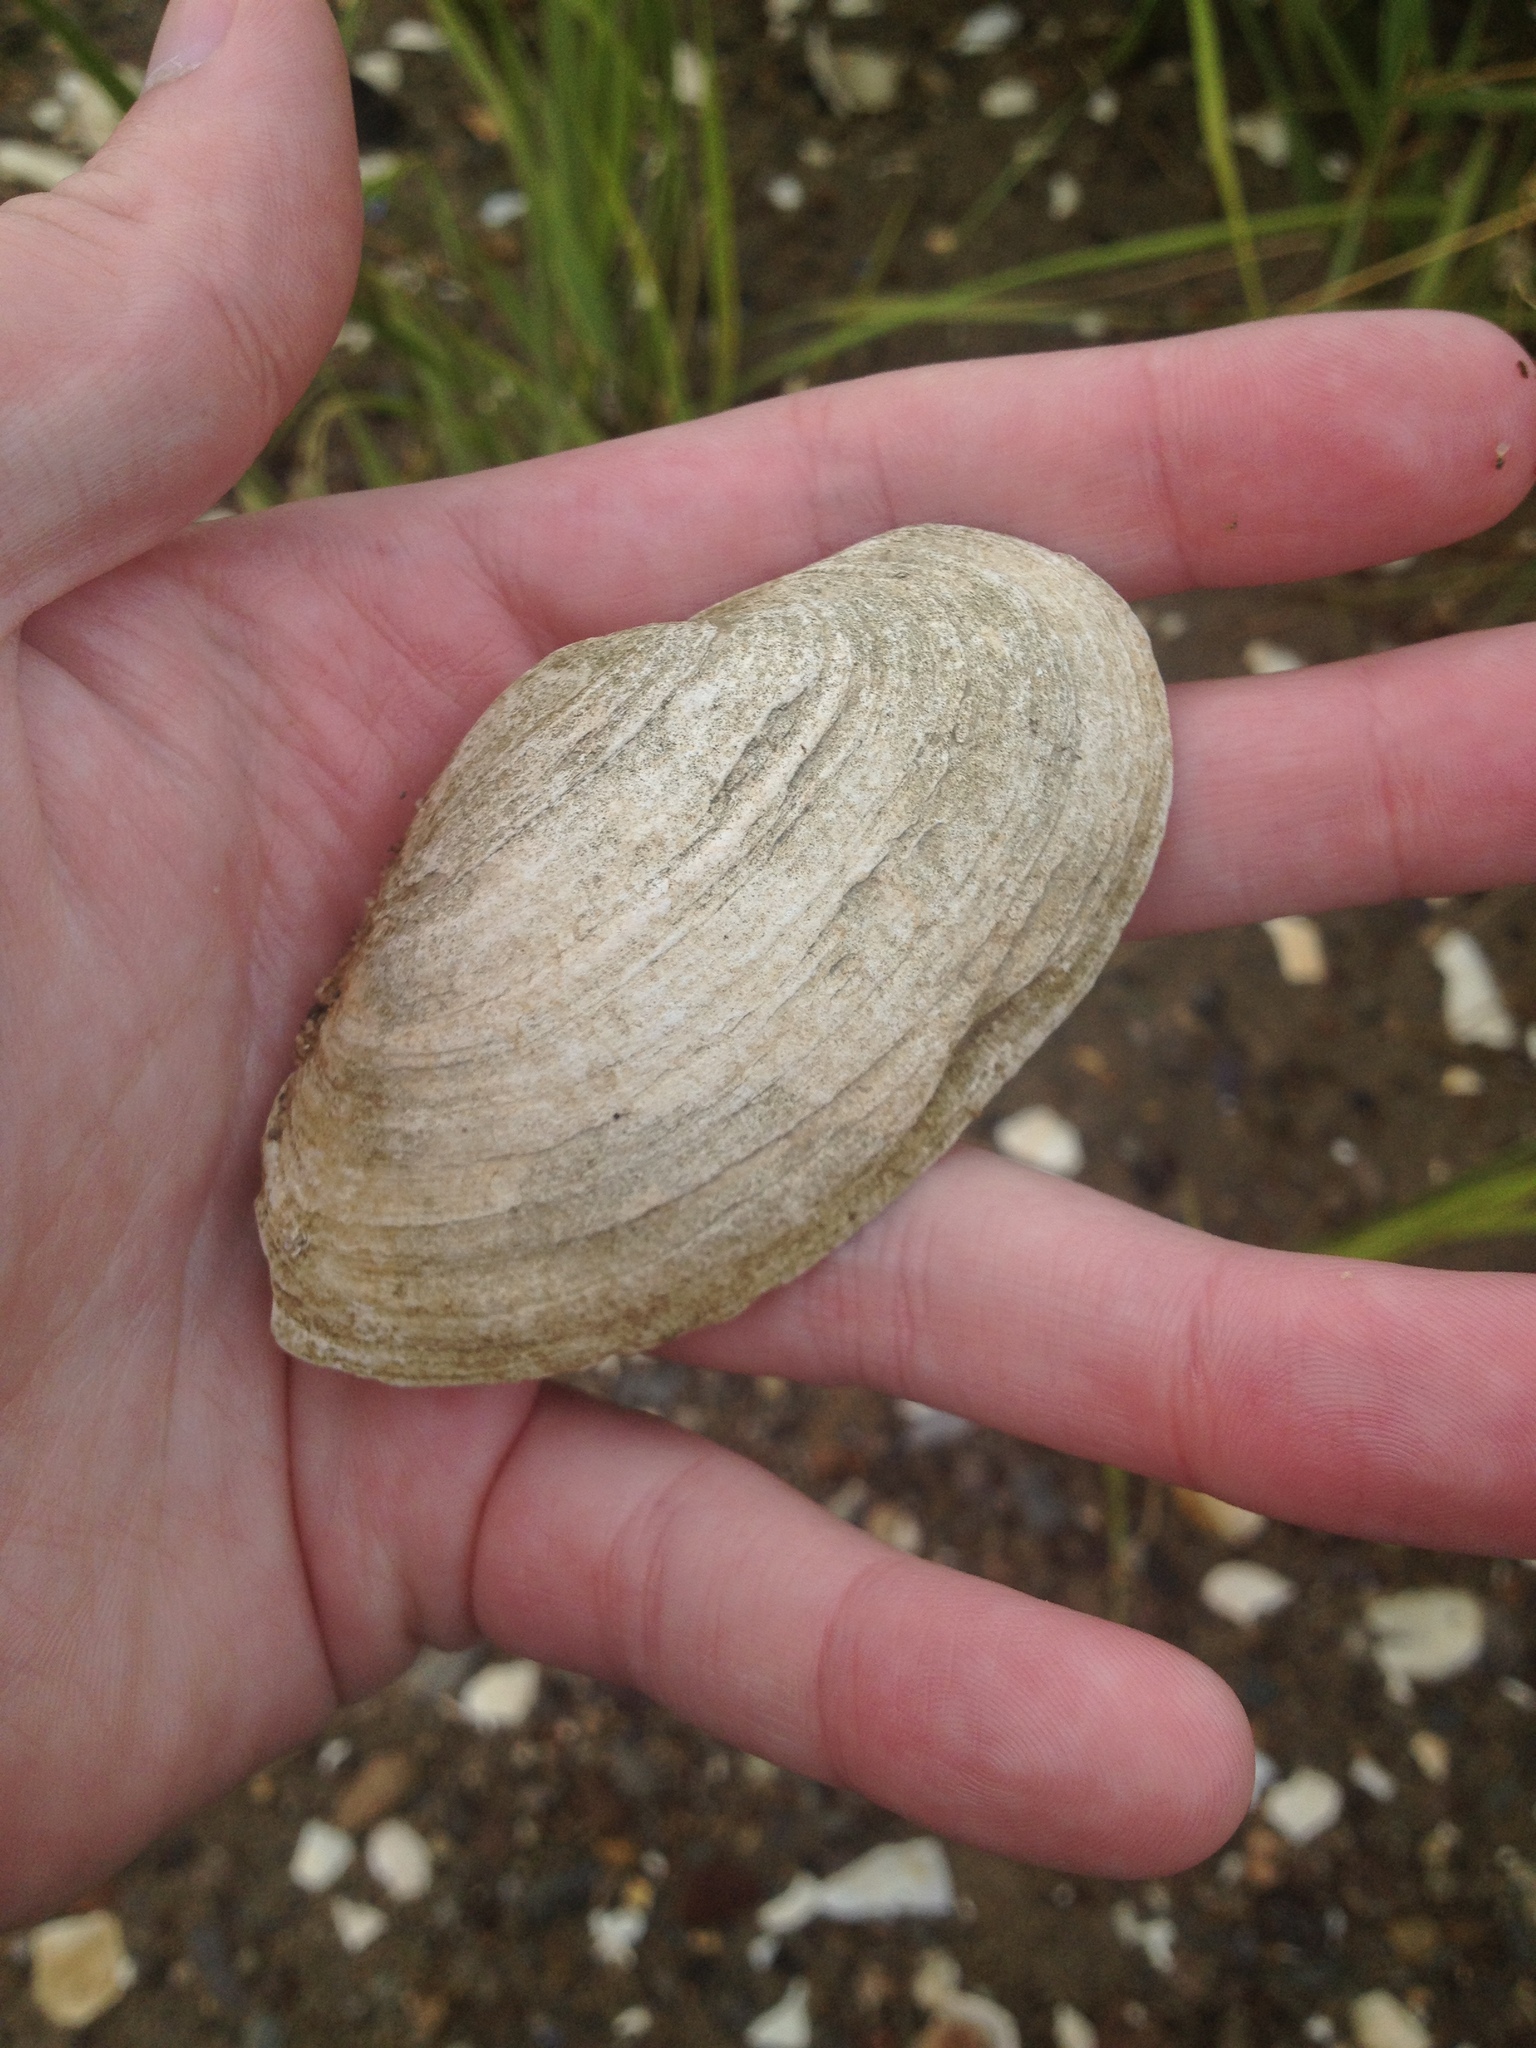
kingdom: Animalia
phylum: Mollusca
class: Bivalvia
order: Myida
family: Myidae
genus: Mya
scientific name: Mya arenaria
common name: Soft-shelled clam
